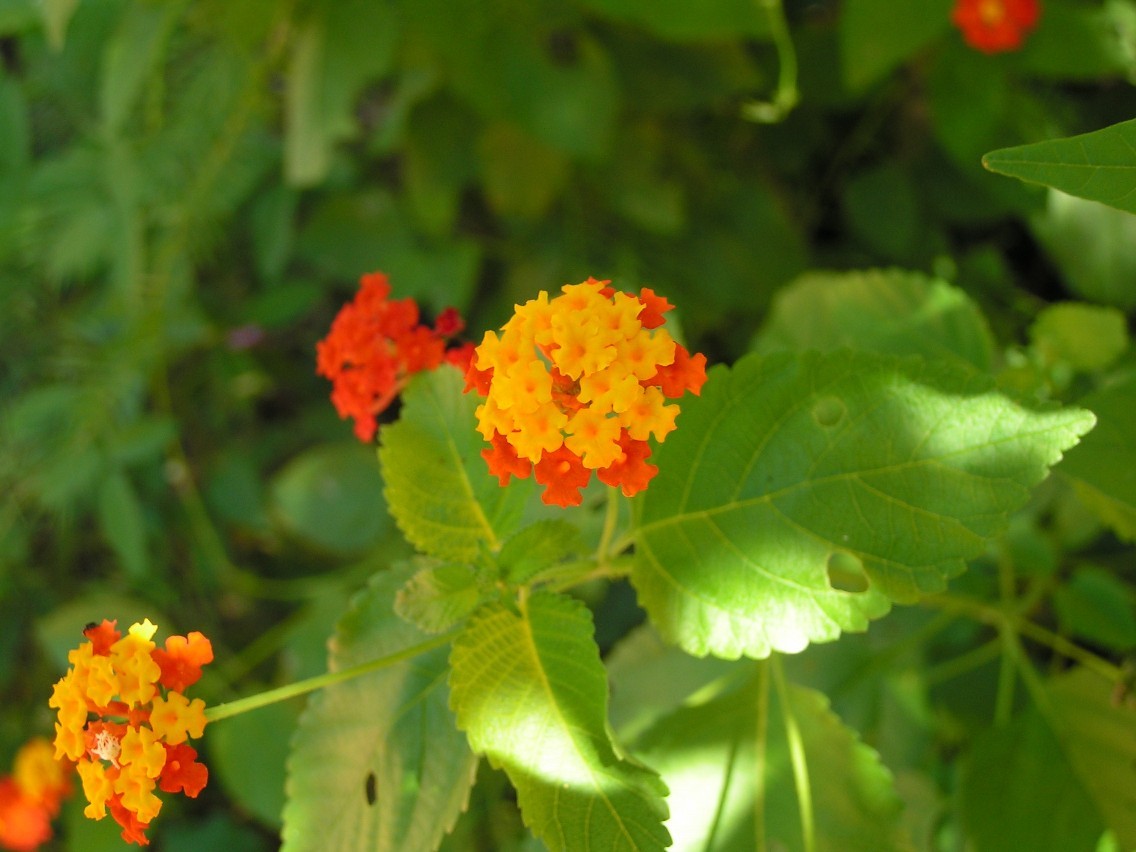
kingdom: Plantae
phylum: Tracheophyta
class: Magnoliopsida
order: Lamiales
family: Verbenaceae
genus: Lantana
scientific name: Lantana camara
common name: Lantana
